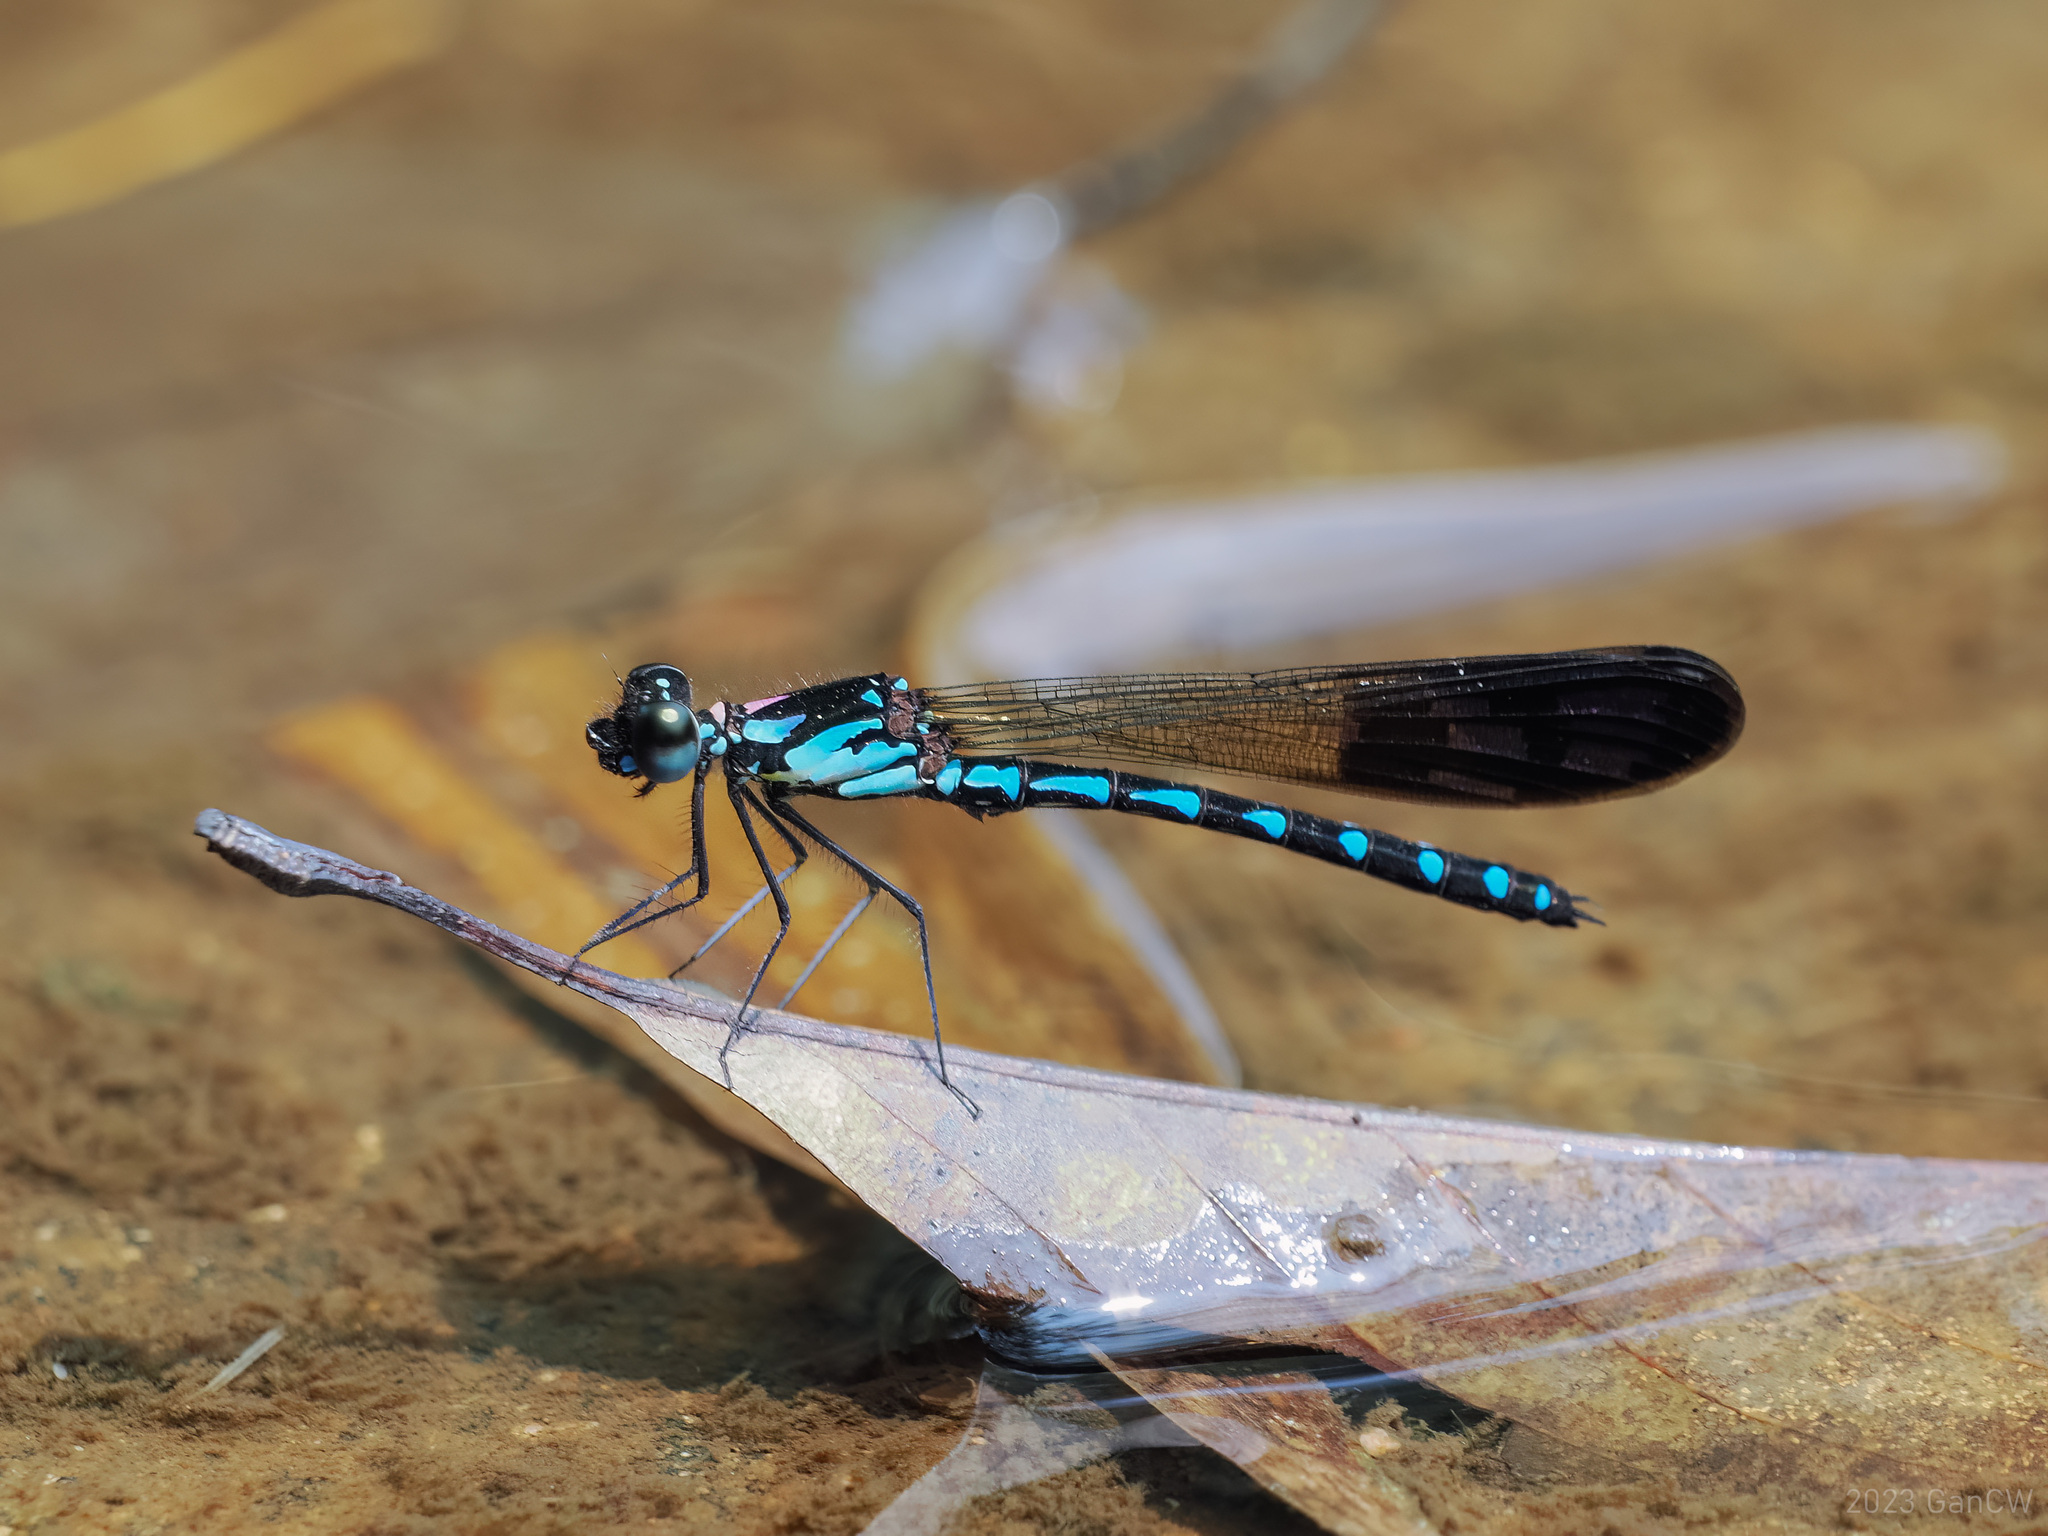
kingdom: Animalia
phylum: Arthropoda
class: Insecta
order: Odonata
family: Chlorocyphidae
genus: Heliocypha
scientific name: Heliocypha perforata
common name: Common blue jewel
